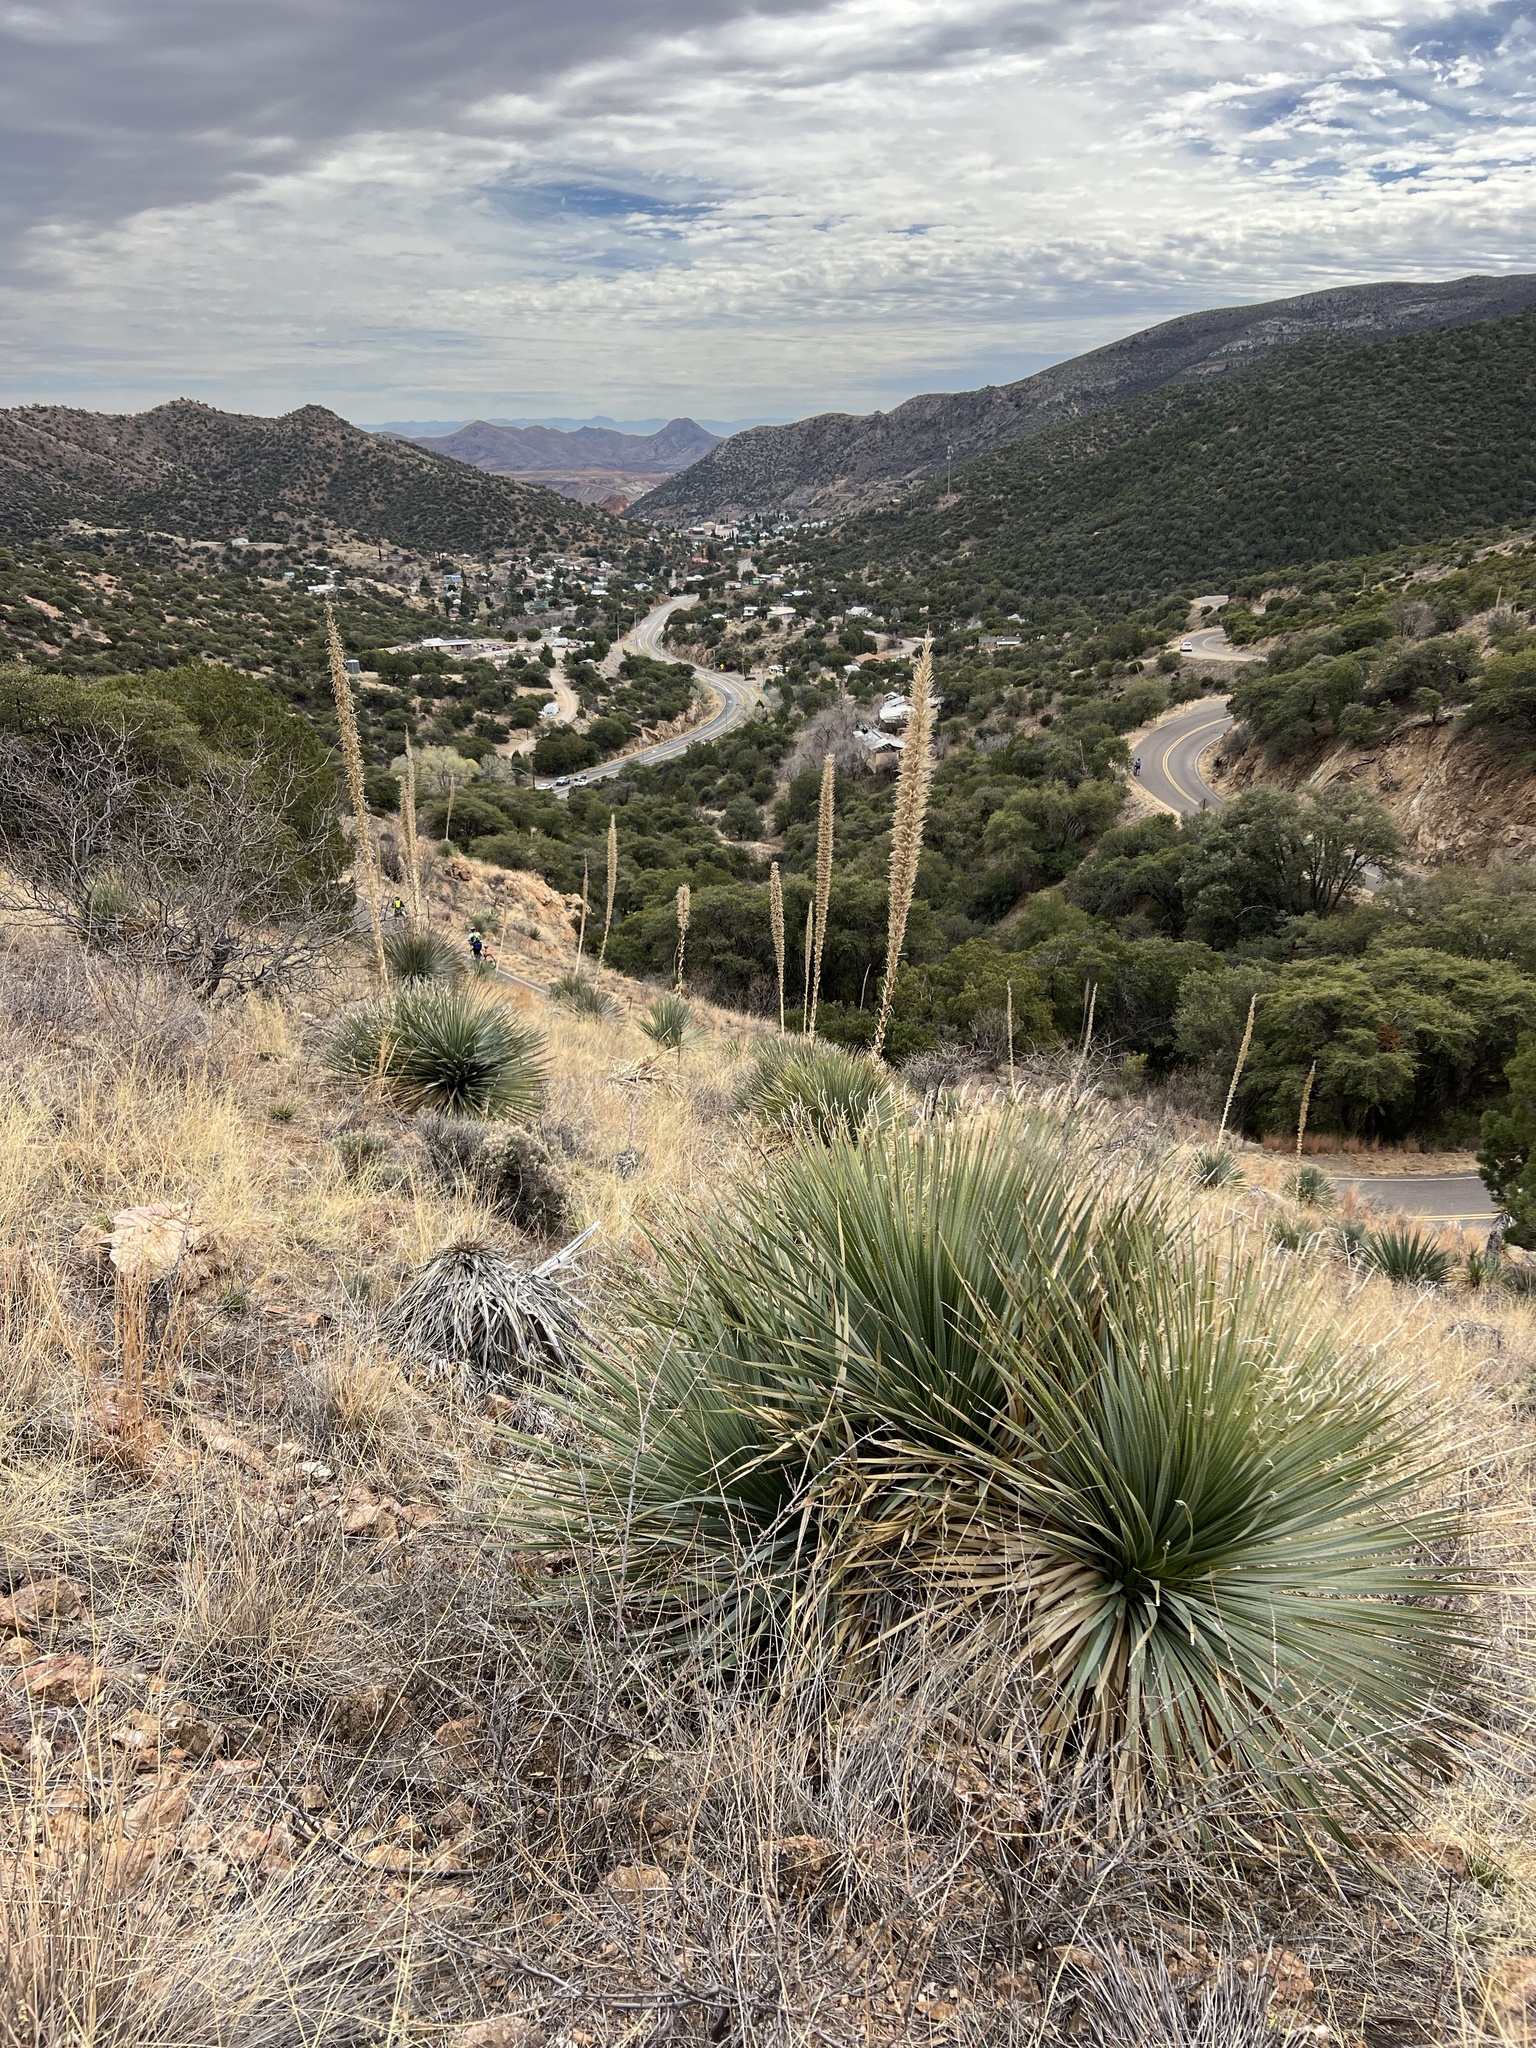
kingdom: Plantae
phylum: Tracheophyta
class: Liliopsida
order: Asparagales
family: Asparagaceae
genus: Dasylirion
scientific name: Dasylirion wheeleri
